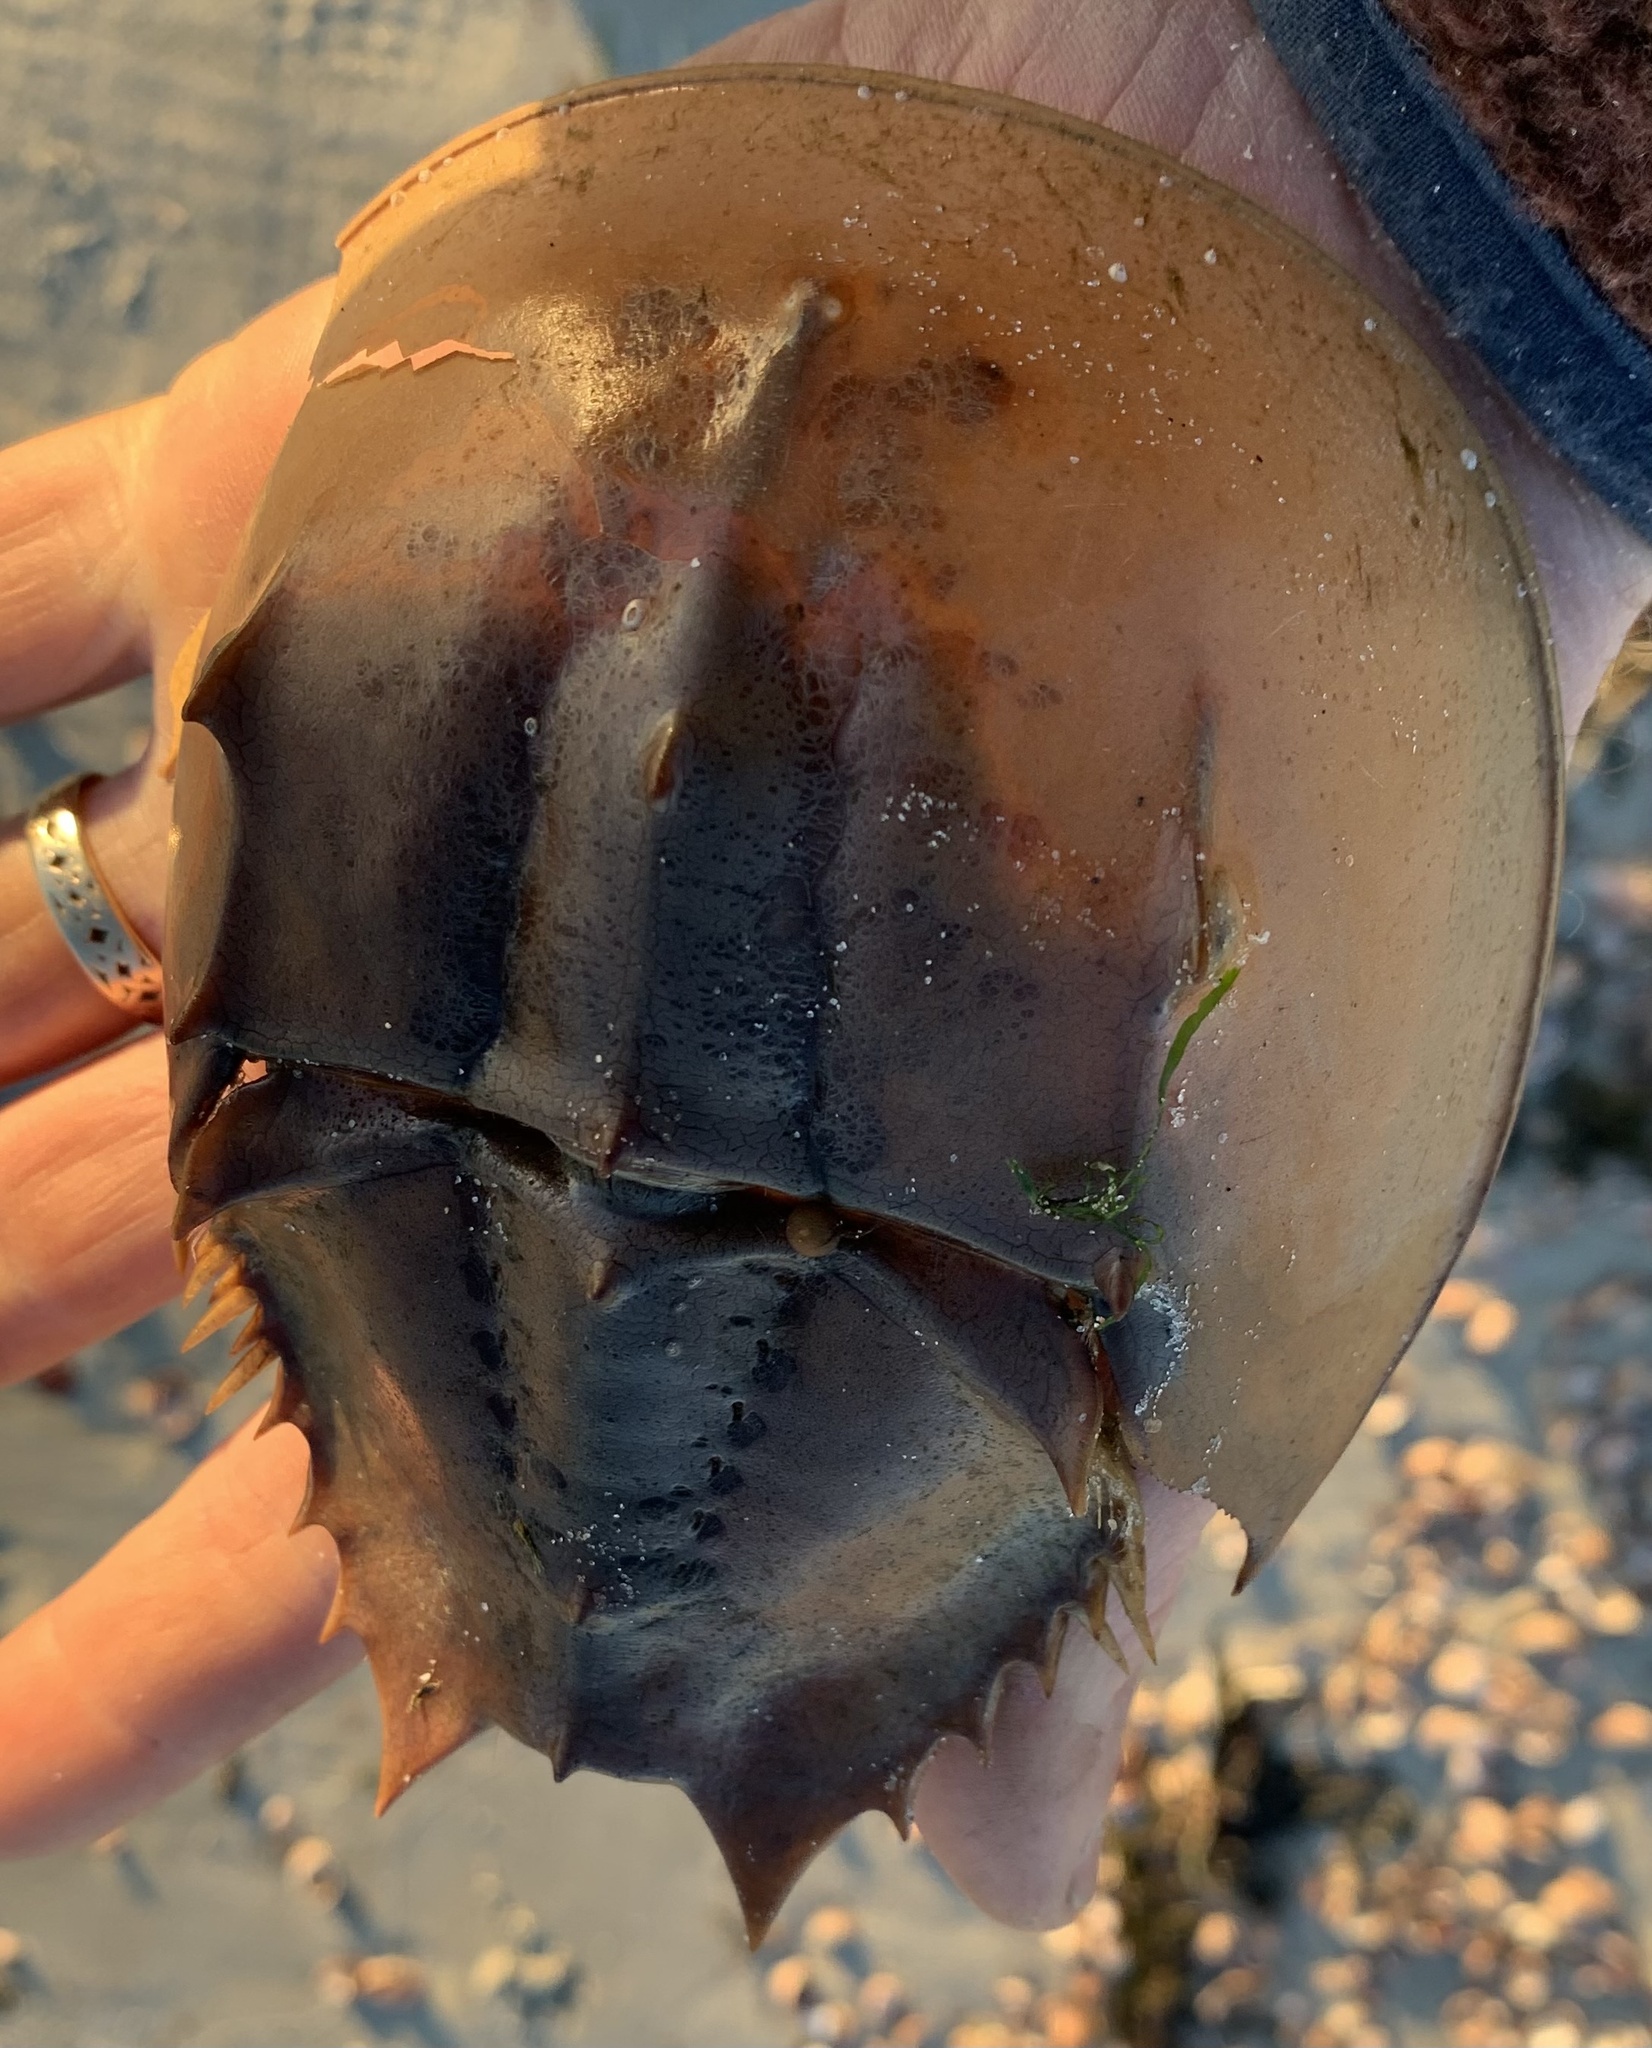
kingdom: Animalia
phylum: Arthropoda
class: Merostomata
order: Xiphosurida
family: Limulidae
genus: Limulus
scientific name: Limulus polyphemus
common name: Horseshoe crab
